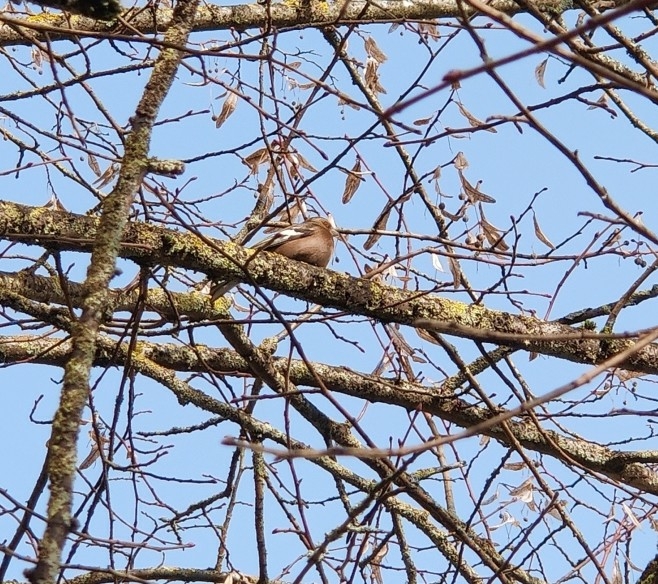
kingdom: Animalia
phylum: Chordata
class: Aves
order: Passeriformes
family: Fringillidae
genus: Fringilla
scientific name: Fringilla coelebs
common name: Common chaffinch
